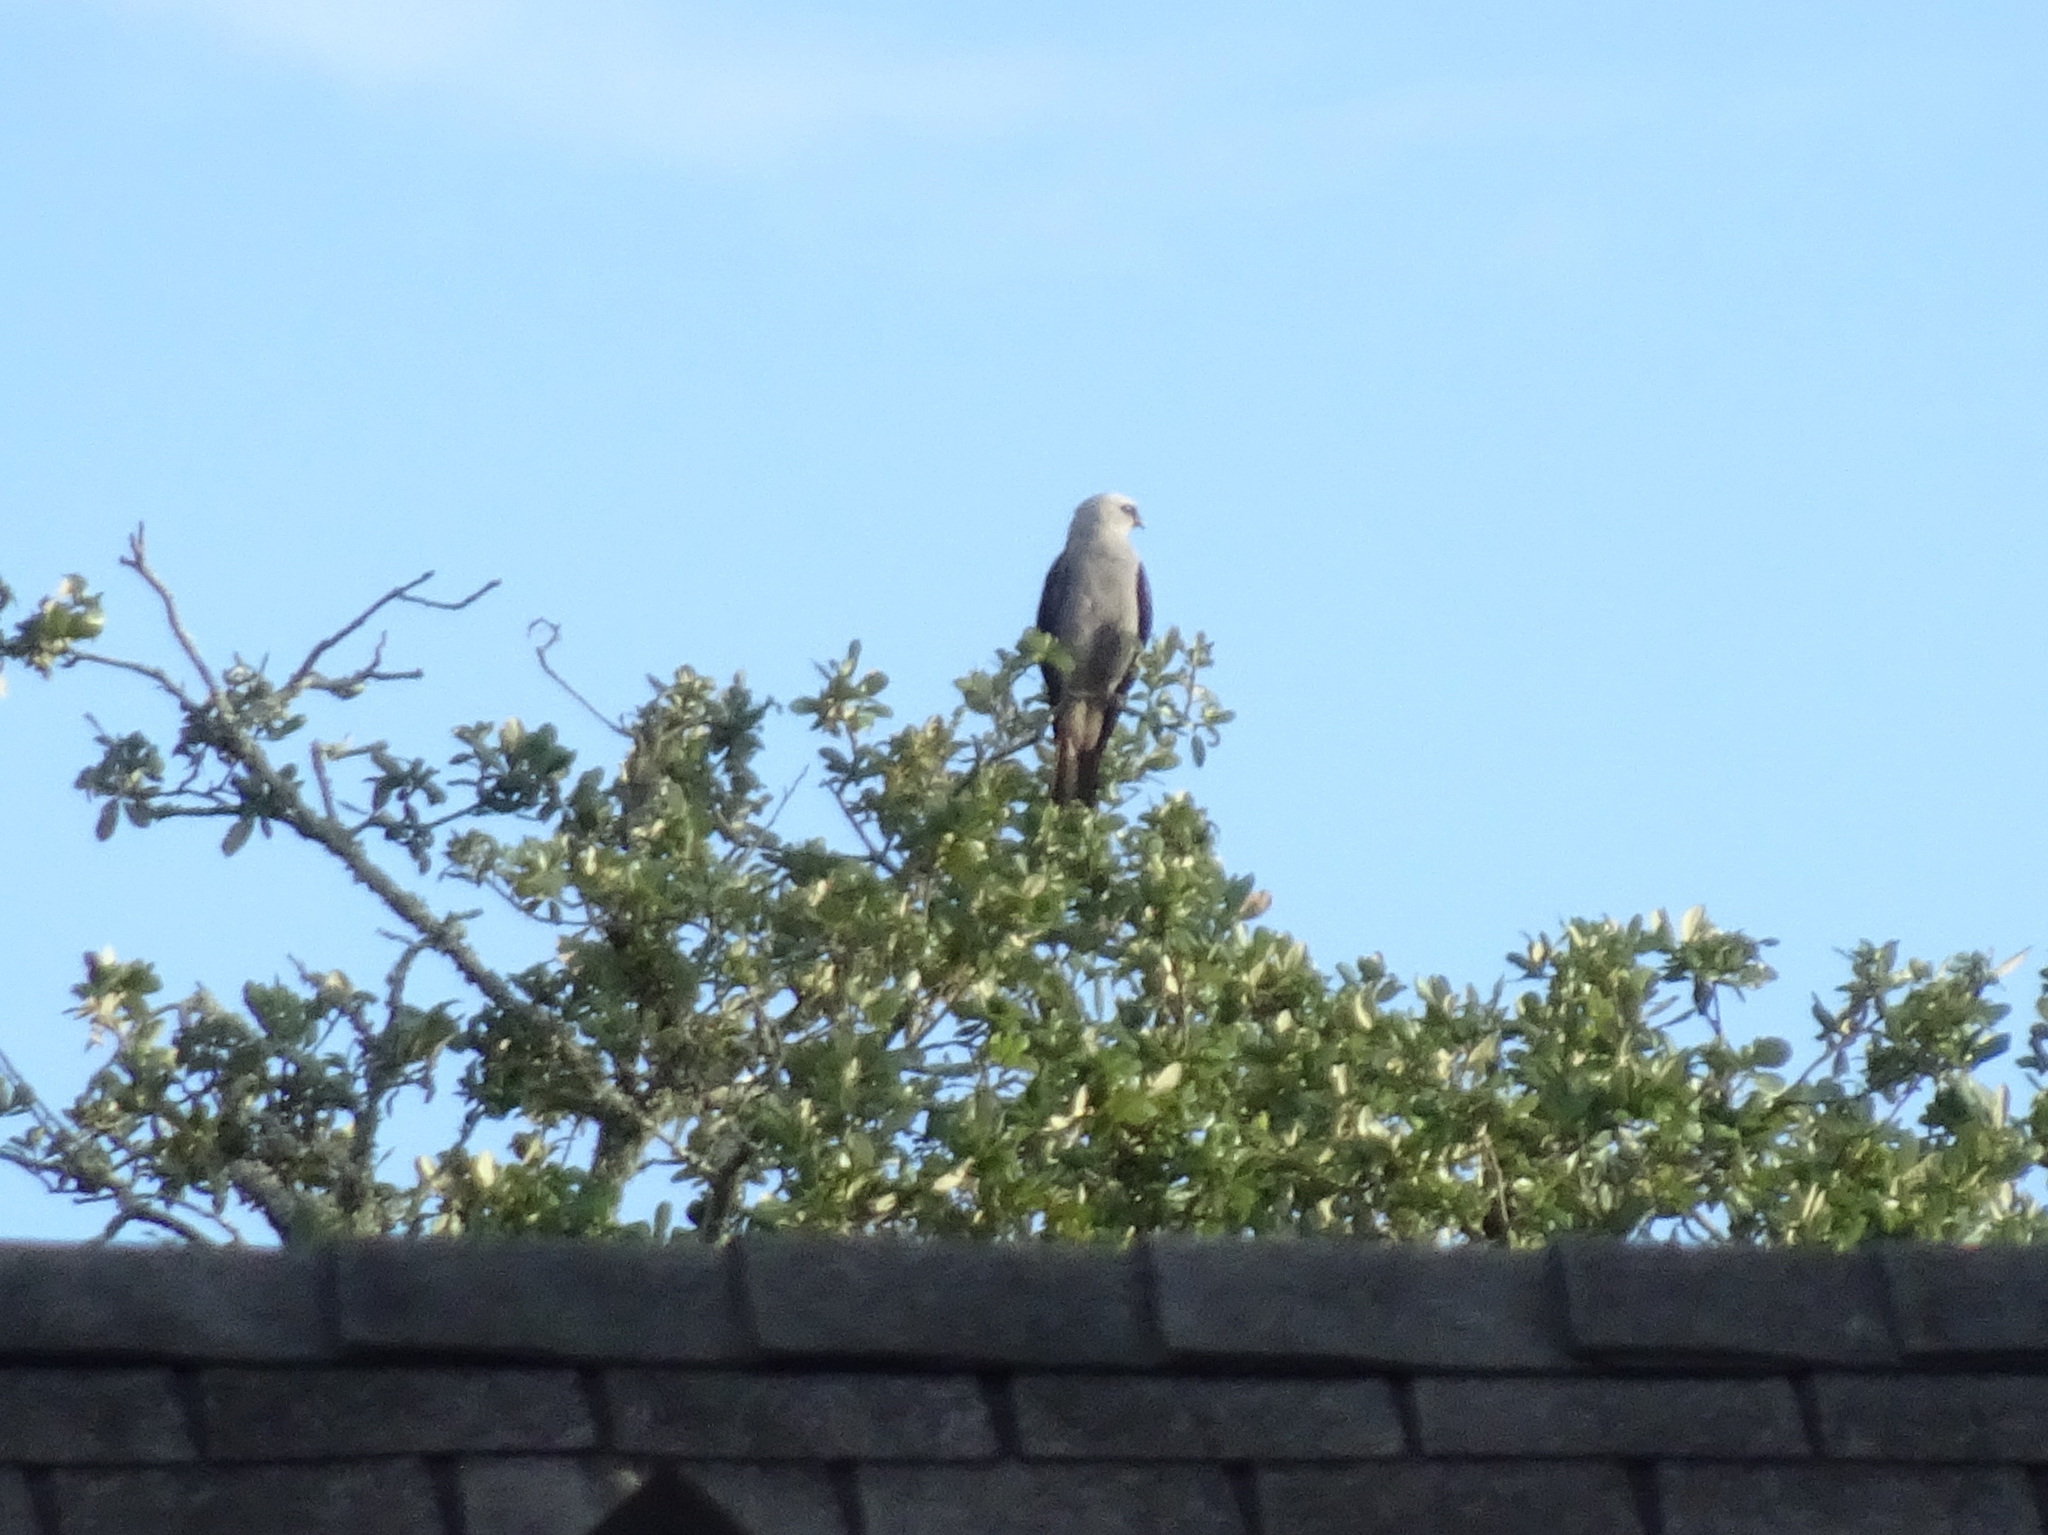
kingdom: Animalia
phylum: Chordata
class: Aves
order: Accipitriformes
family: Accipitridae
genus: Ictinia
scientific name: Ictinia mississippiensis
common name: Mississippi kite
